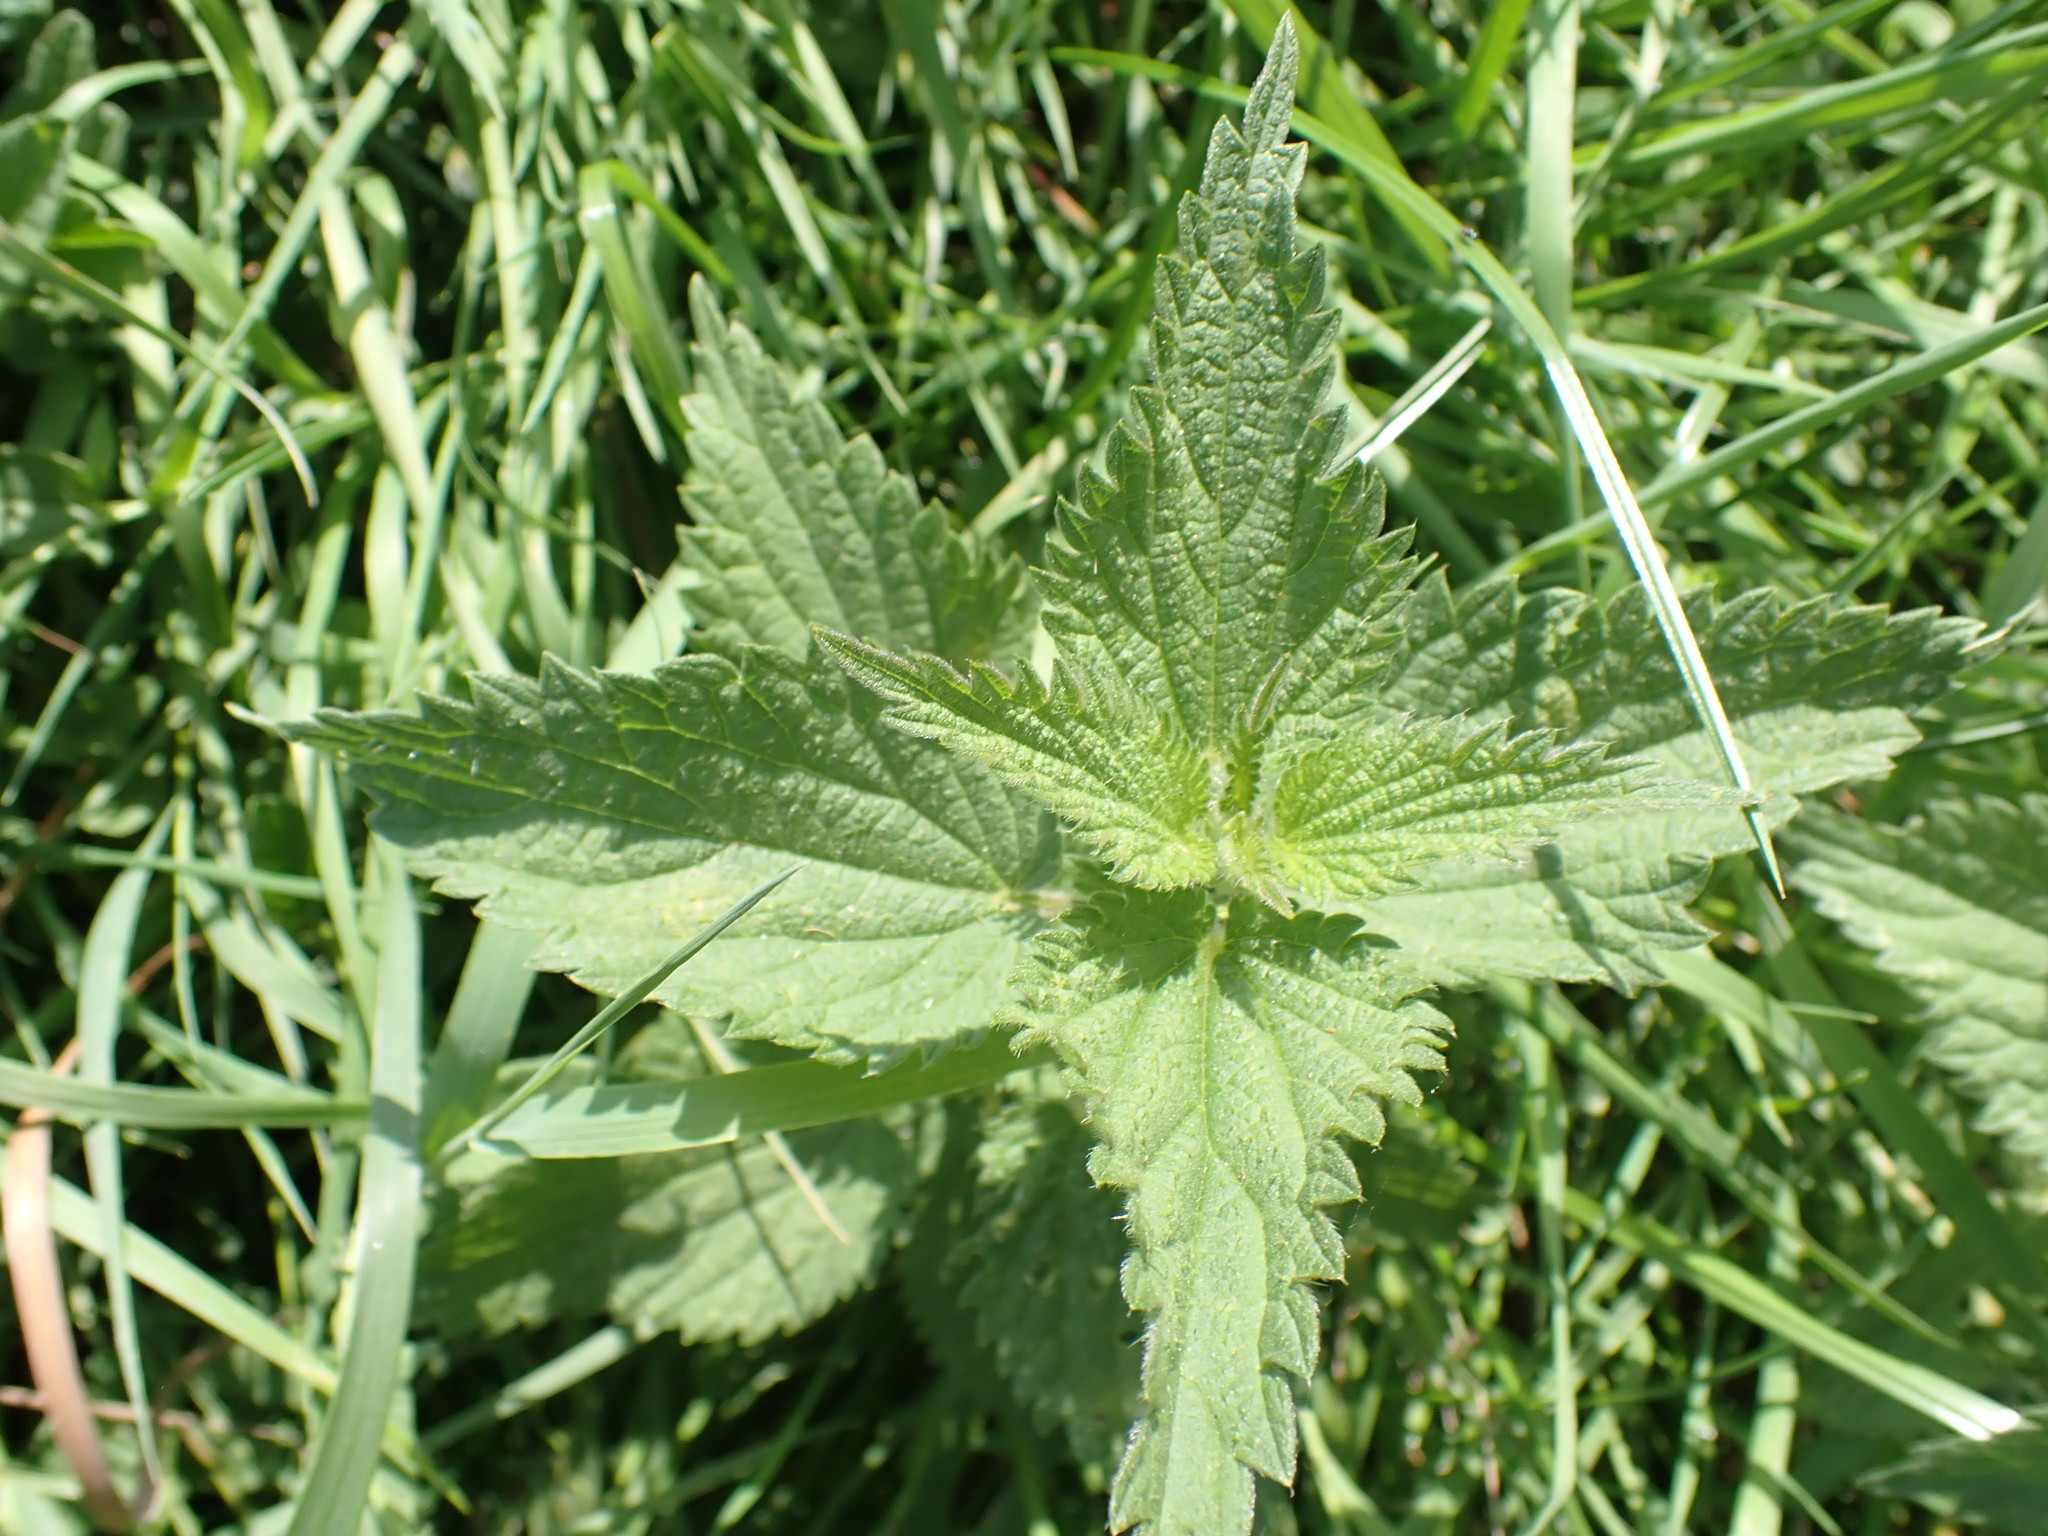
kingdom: Plantae
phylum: Tracheophyta
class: Magnoliopsida
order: Rosales
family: Urticaceae
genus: Urtica
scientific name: Urtica dioica
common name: Common nettle
